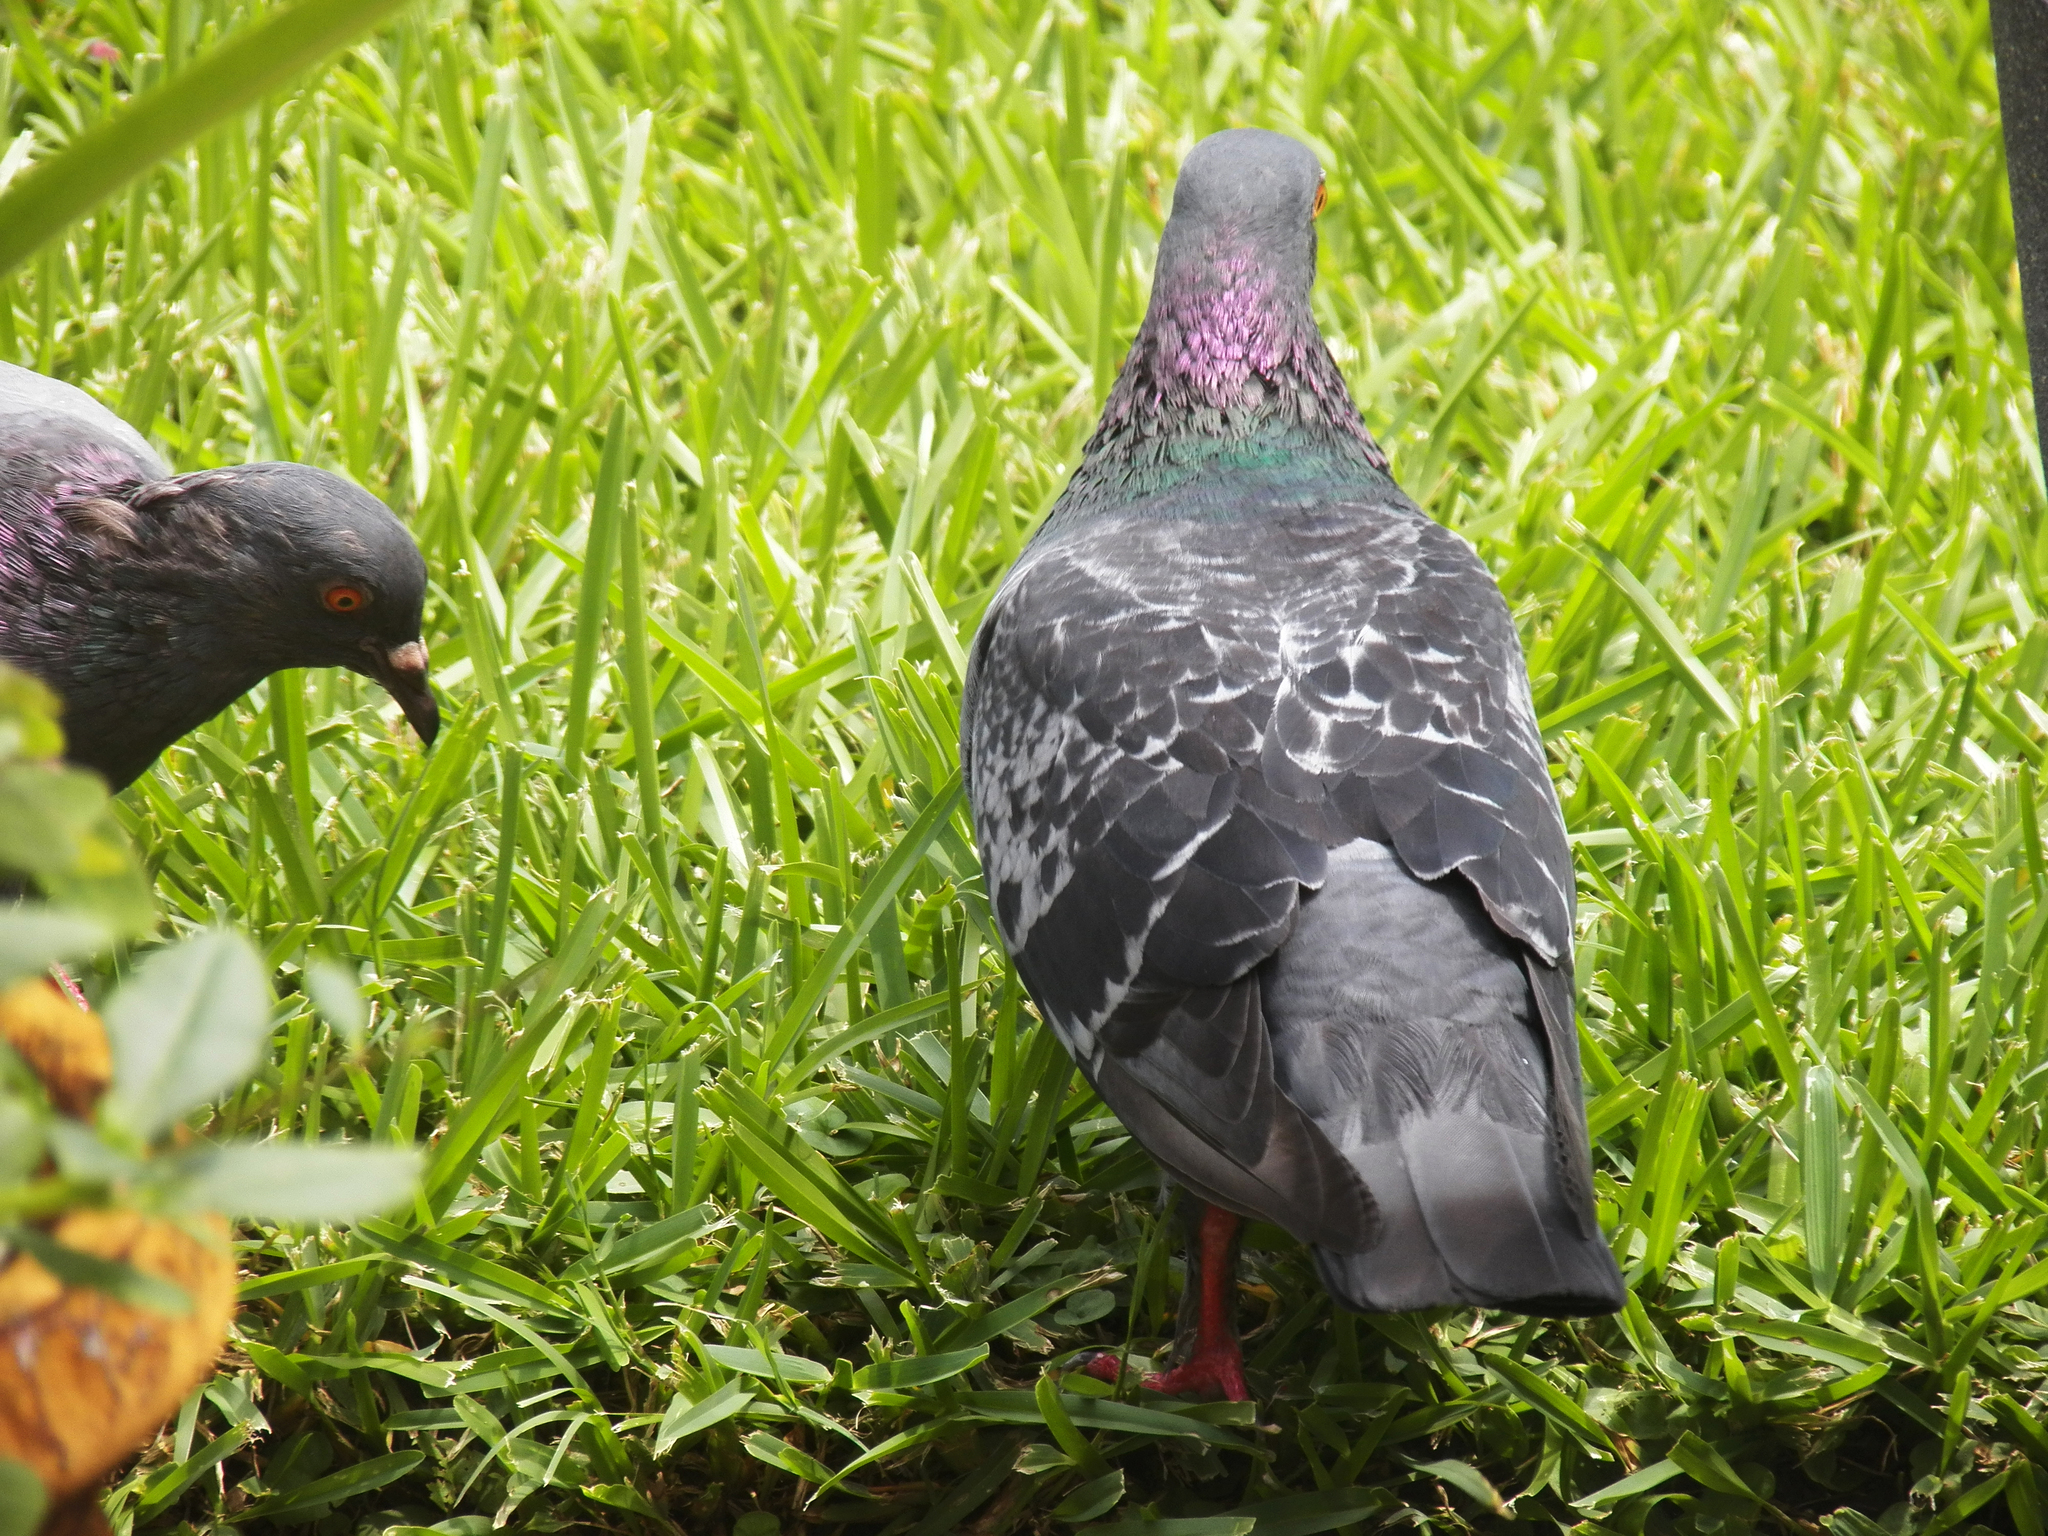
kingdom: Animalia
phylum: Chordata
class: Aves
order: Columbiformes
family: Columbidae
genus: Columba
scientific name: Columba livia
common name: Rock pigeon
